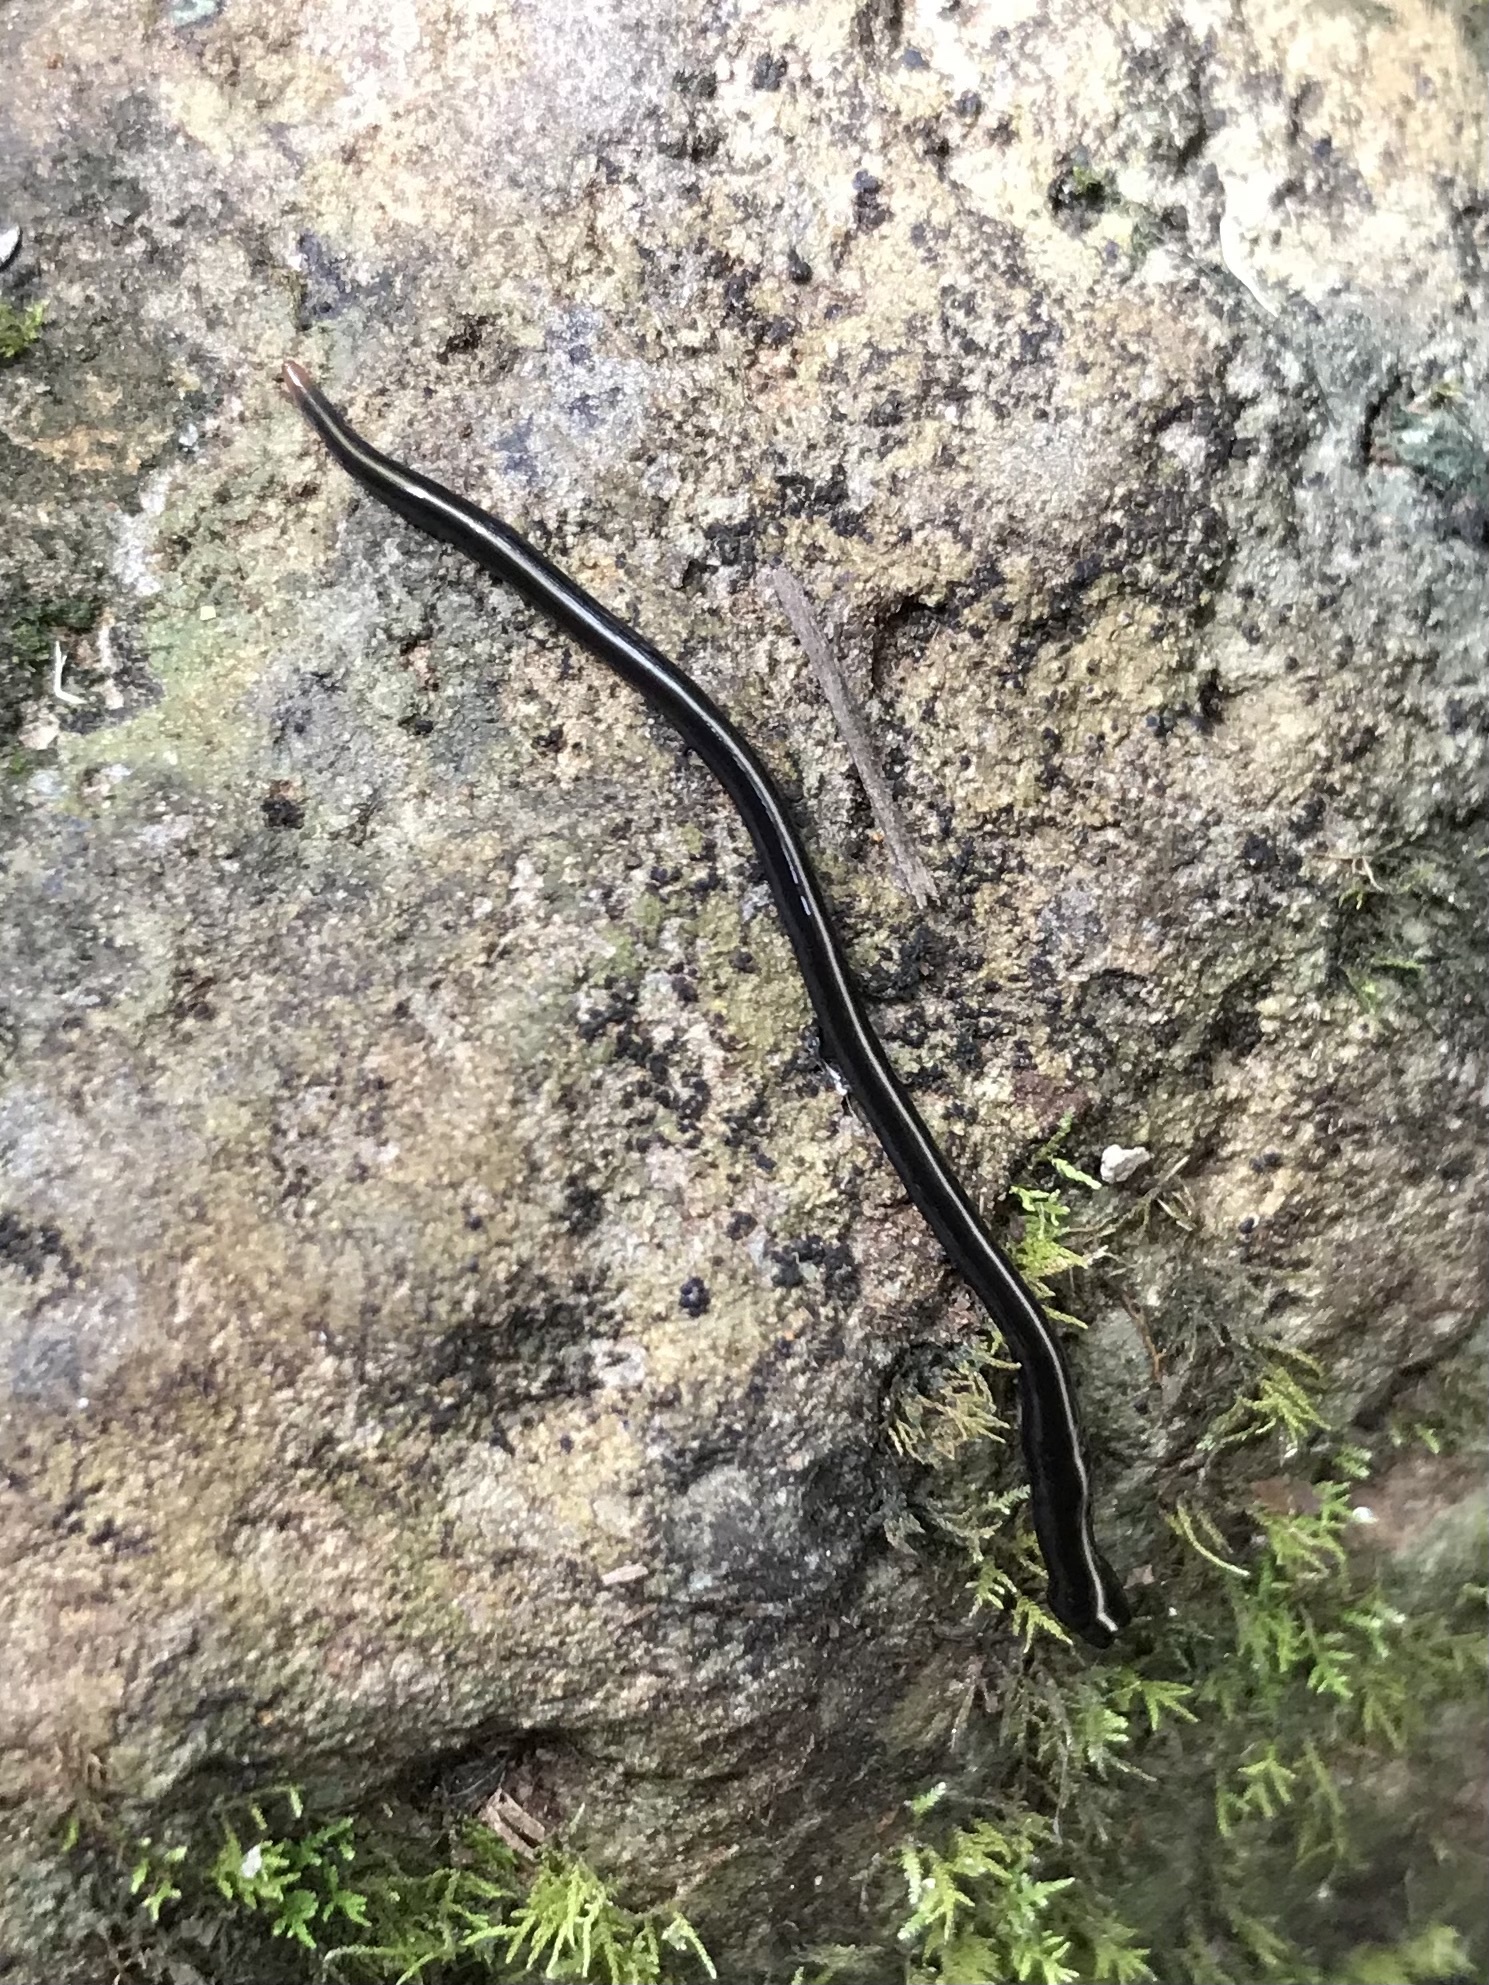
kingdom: Animalia
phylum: Platyhelminthes
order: Tricladida
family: Geoplanidae
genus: Caenoplana
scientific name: Caenoplana coerulea
